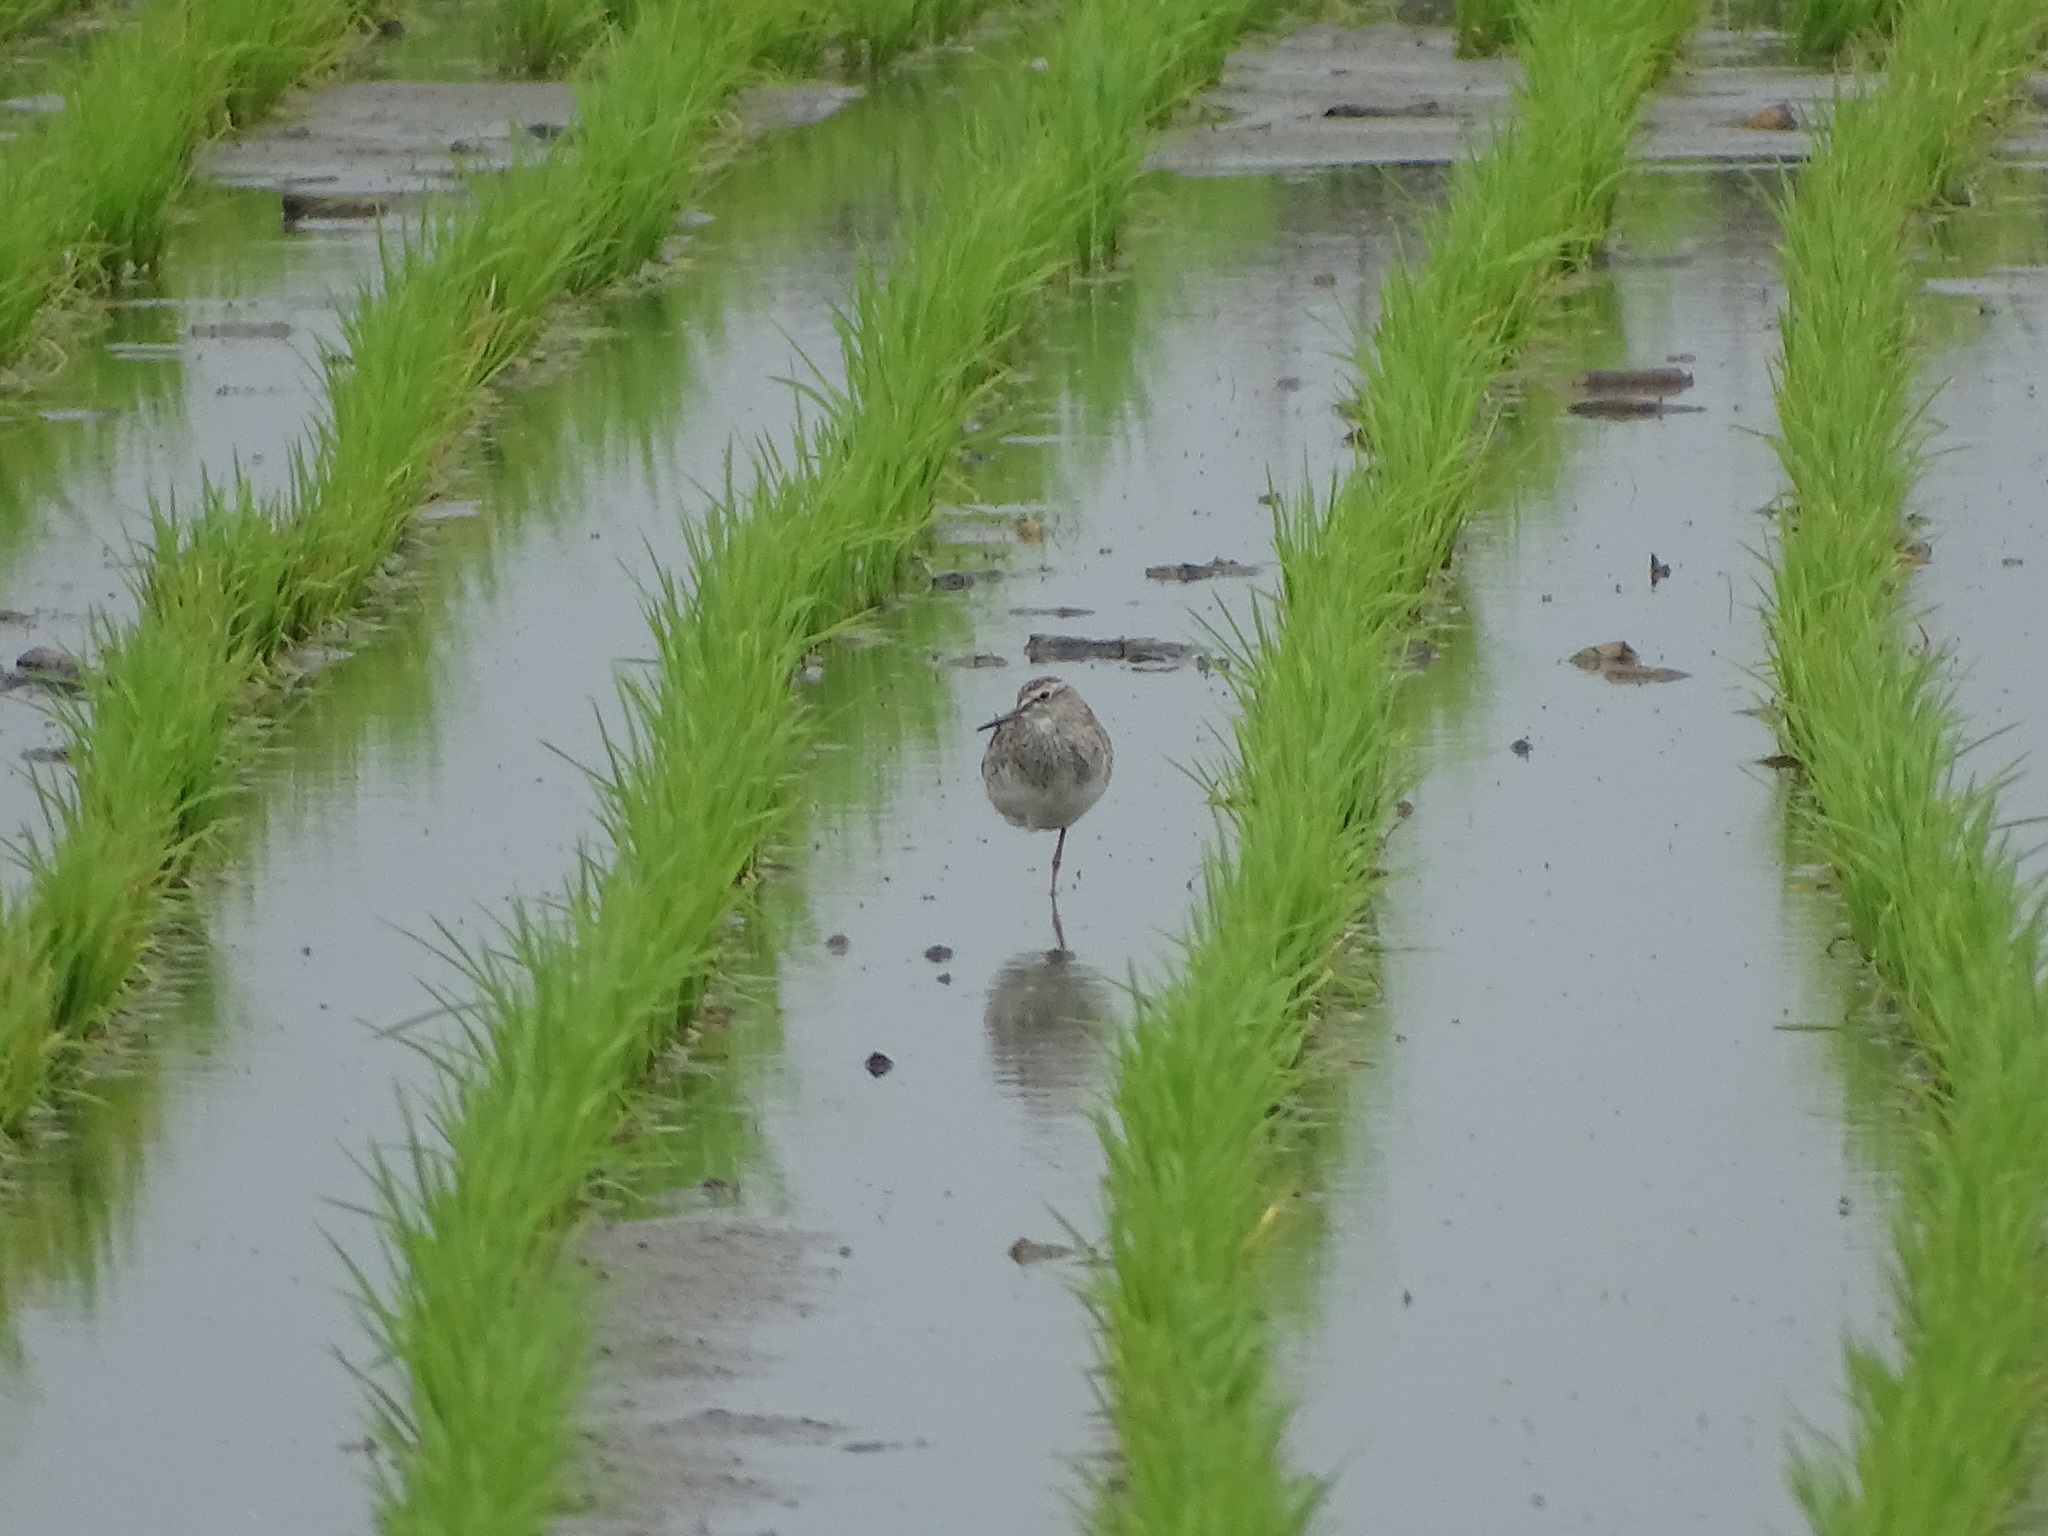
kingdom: Animalia
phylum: Chordata
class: Aves
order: Charadriiformes
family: Scolopacidae
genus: Tringa
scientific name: Tringa glareola
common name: Wood sandpiper
